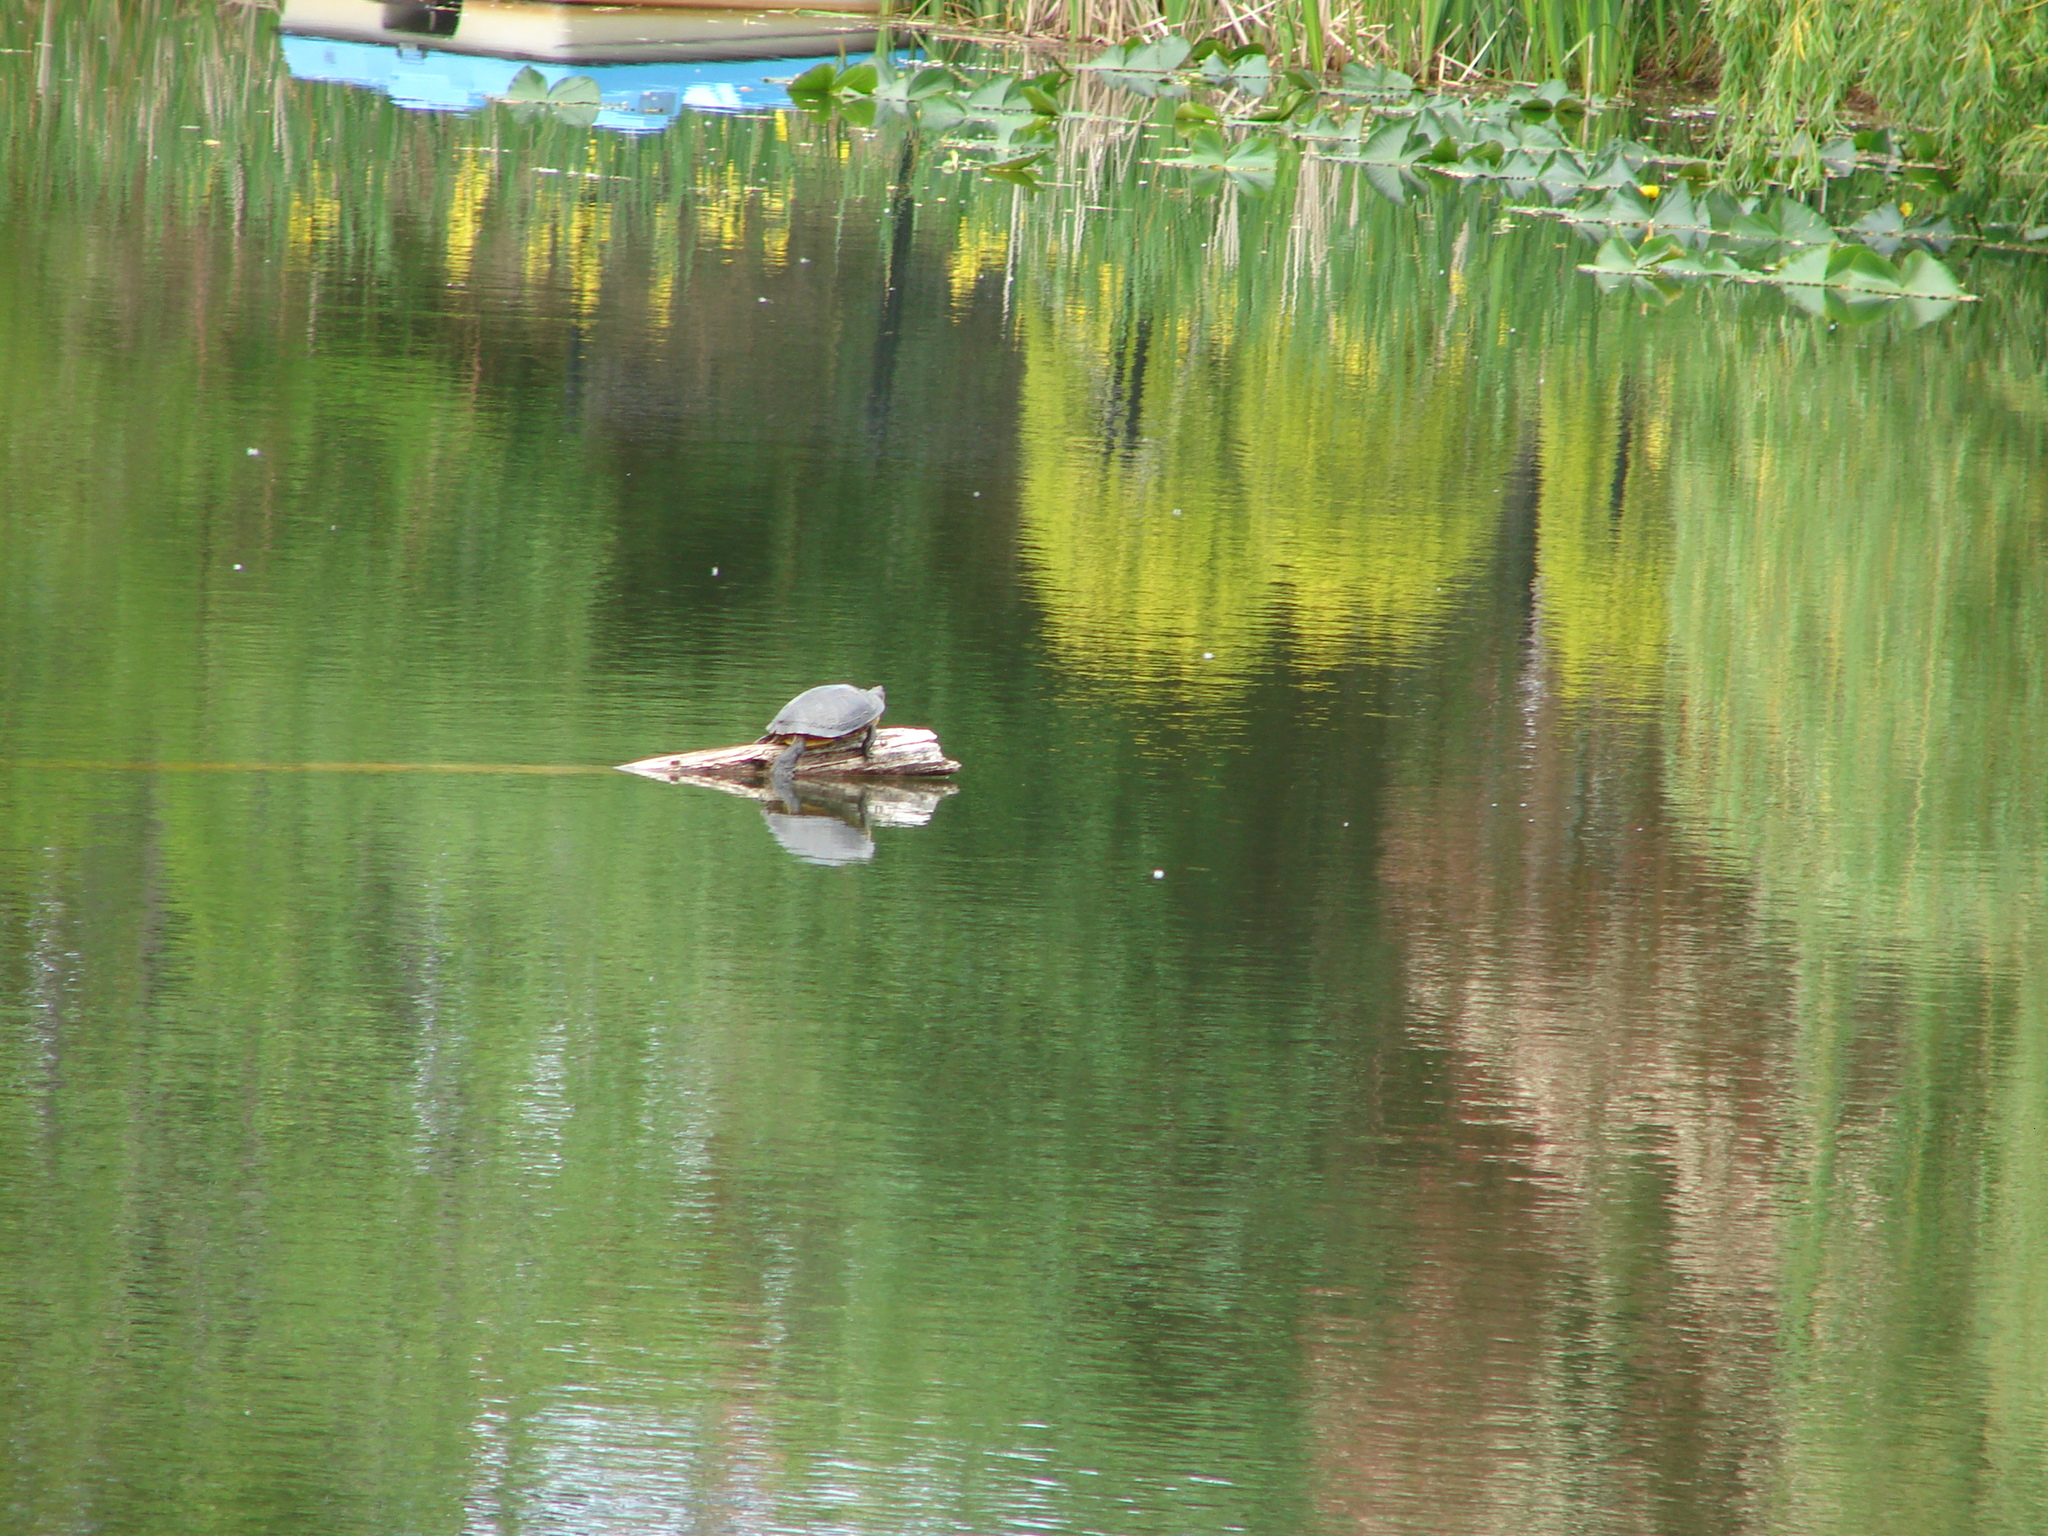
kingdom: Animalia
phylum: Chordata
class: Testudines
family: Emydidae
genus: Trachemys
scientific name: Trachemys scripta
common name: Slider
